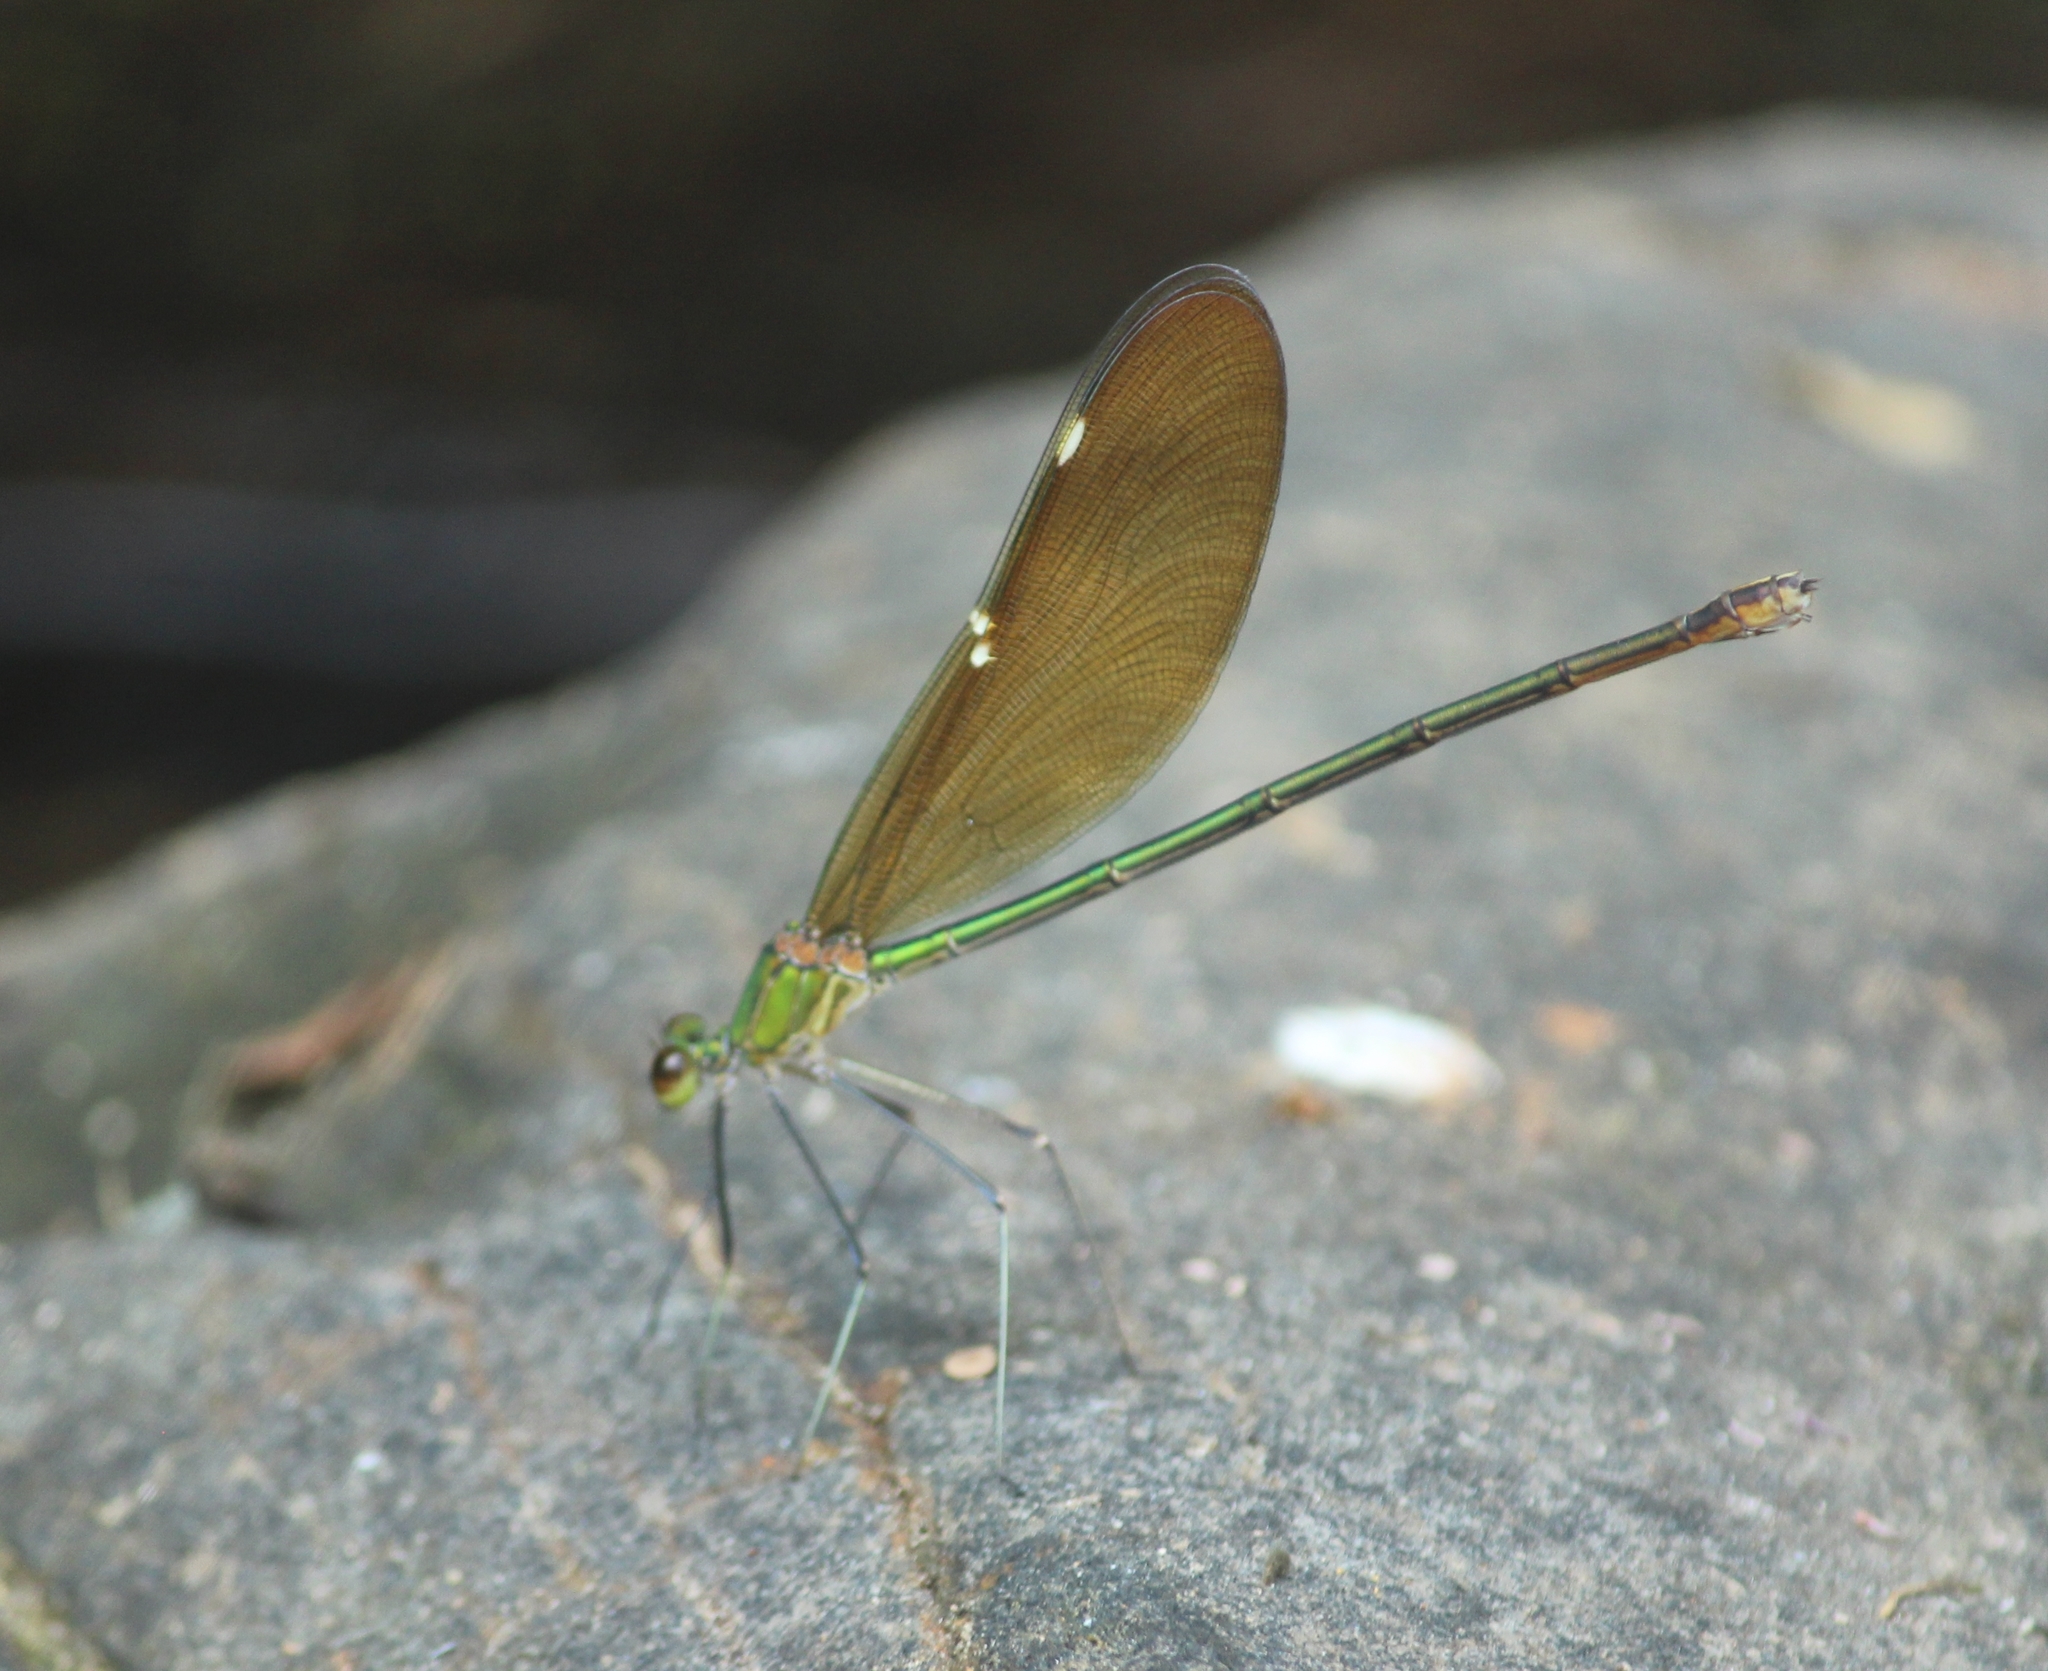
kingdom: Animalia
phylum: Arthropoda
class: Insecta
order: Odonata
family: Calopterygidae
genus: Neurobasis
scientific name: Neurobasis chinensis
